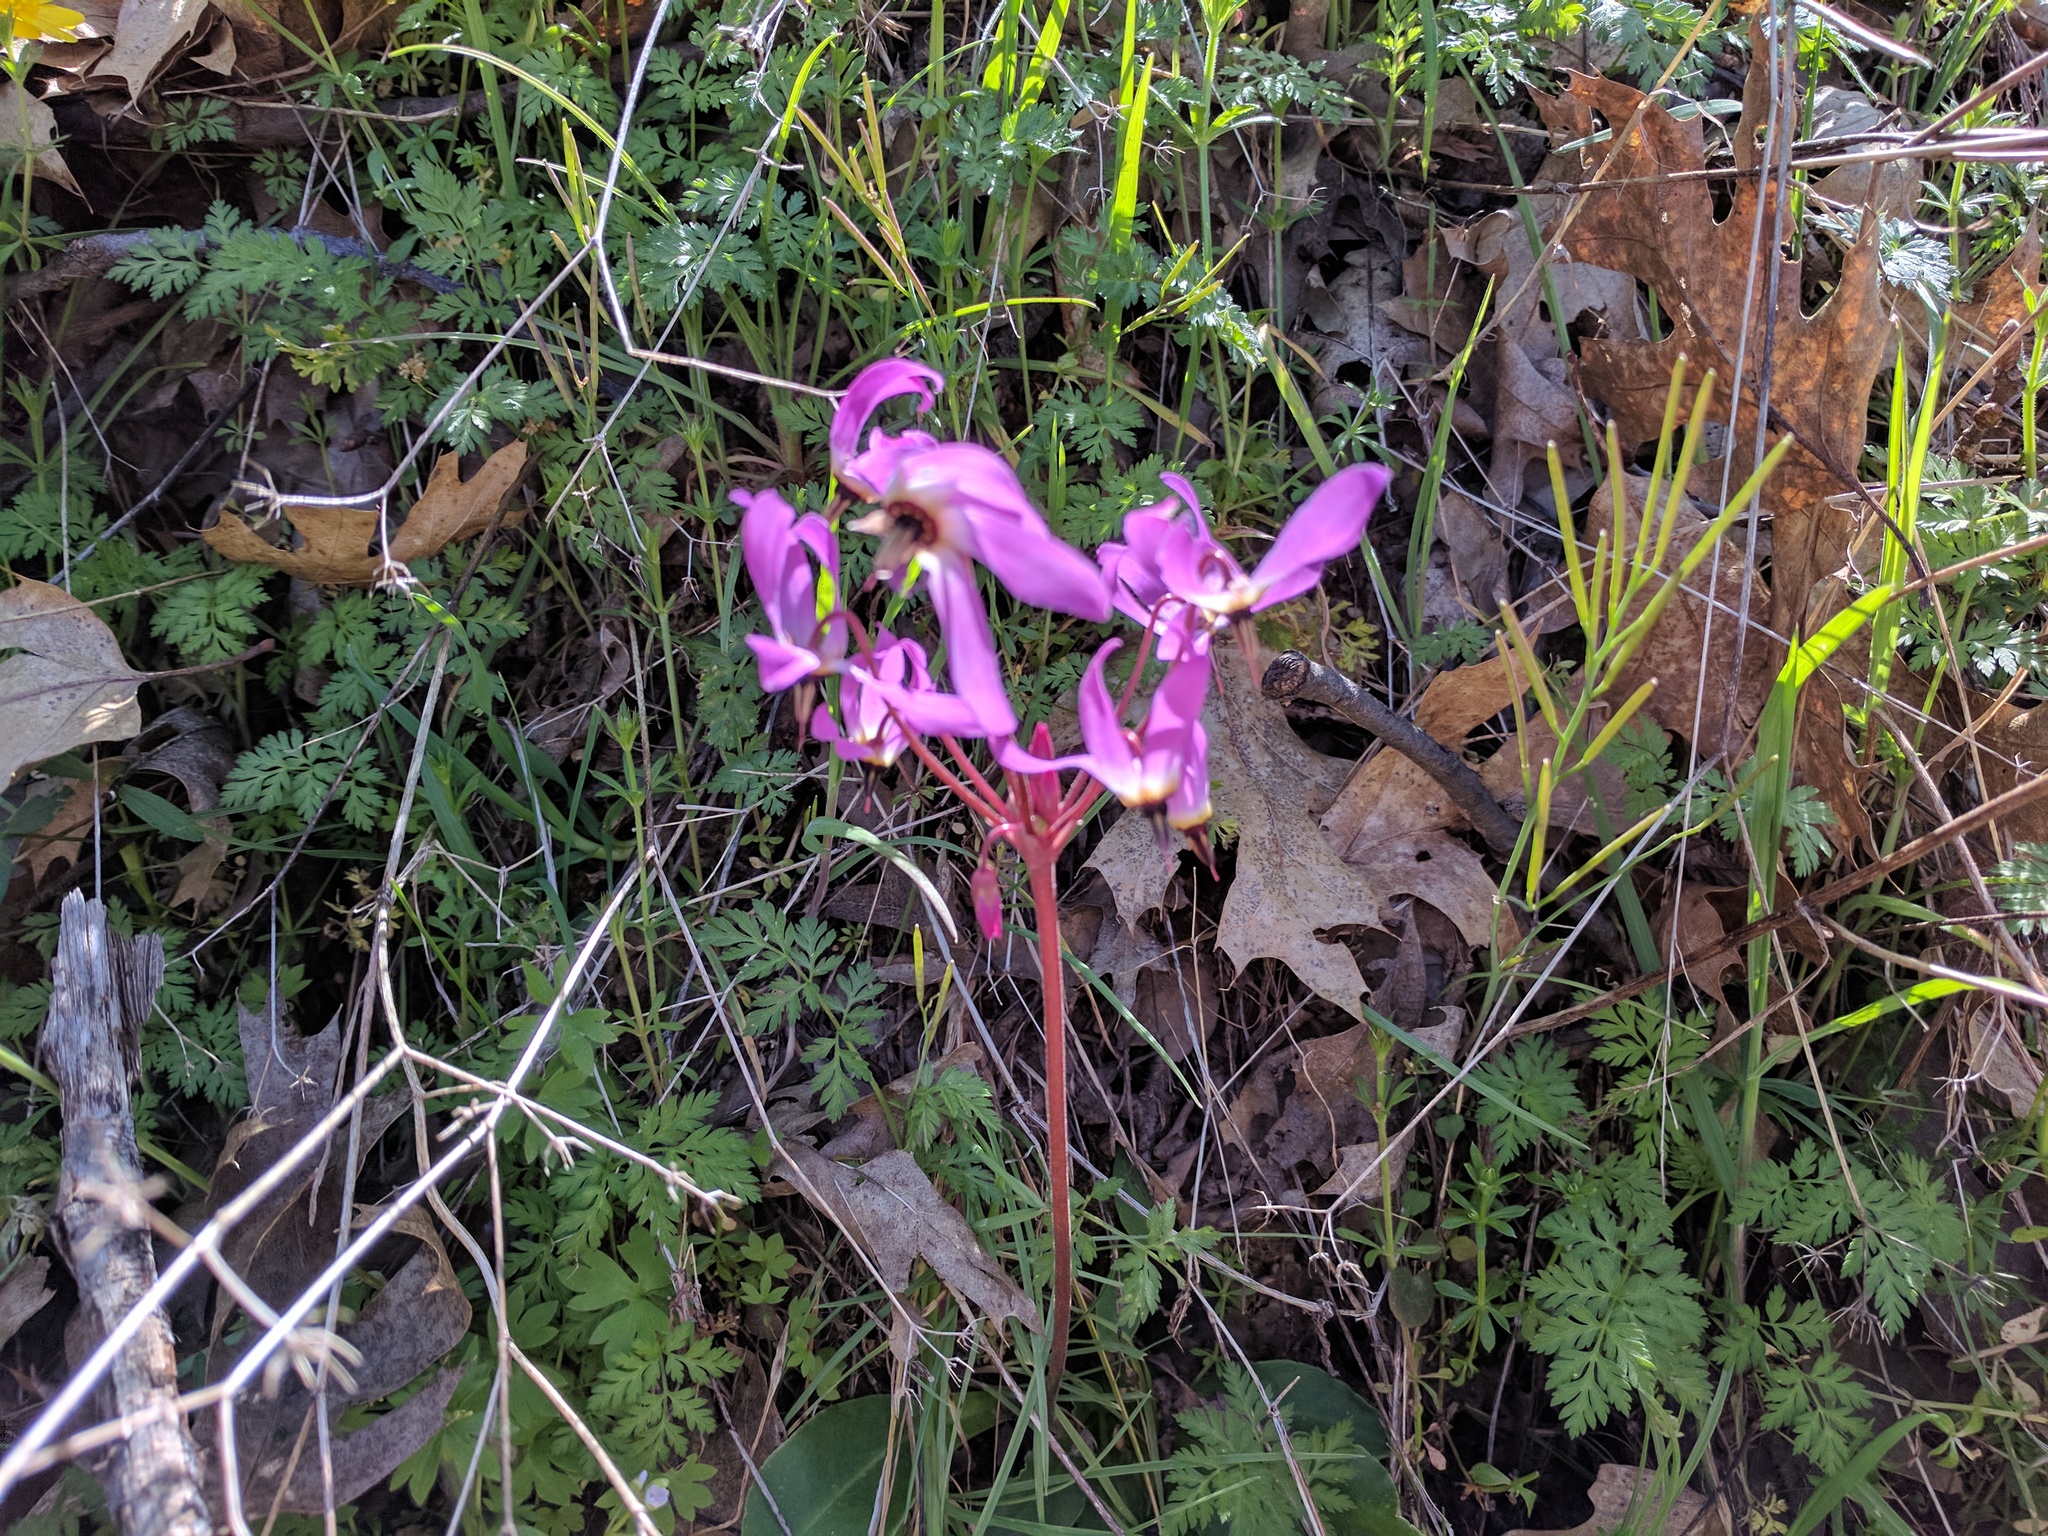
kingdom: Plantae
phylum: Tracheophyta
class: Magnoliopsida
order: Ericales
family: Primulaceae
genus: Dodecatheon
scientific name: Dodecatheon hendersonii
